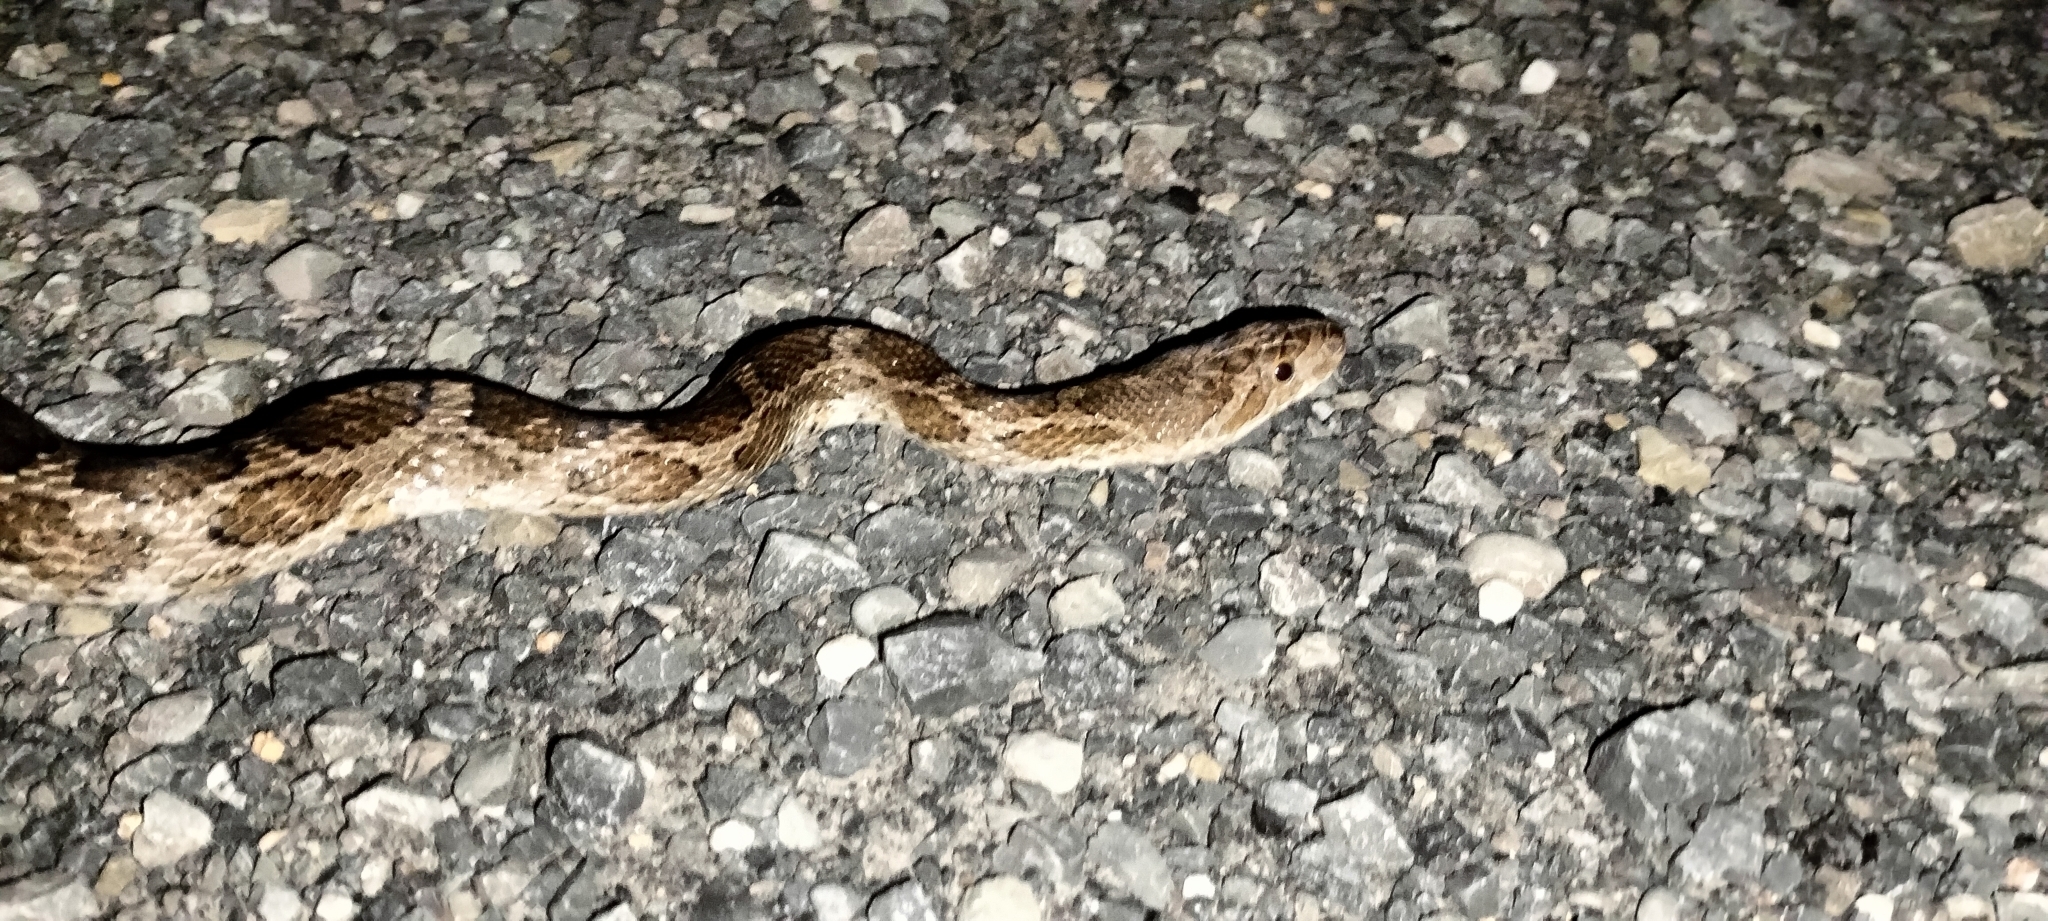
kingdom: Animalia
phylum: Chordata
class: Squamata
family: Colubridae
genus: Pantherophis
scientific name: Pantherophis emoryi
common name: Great plains rat snake
